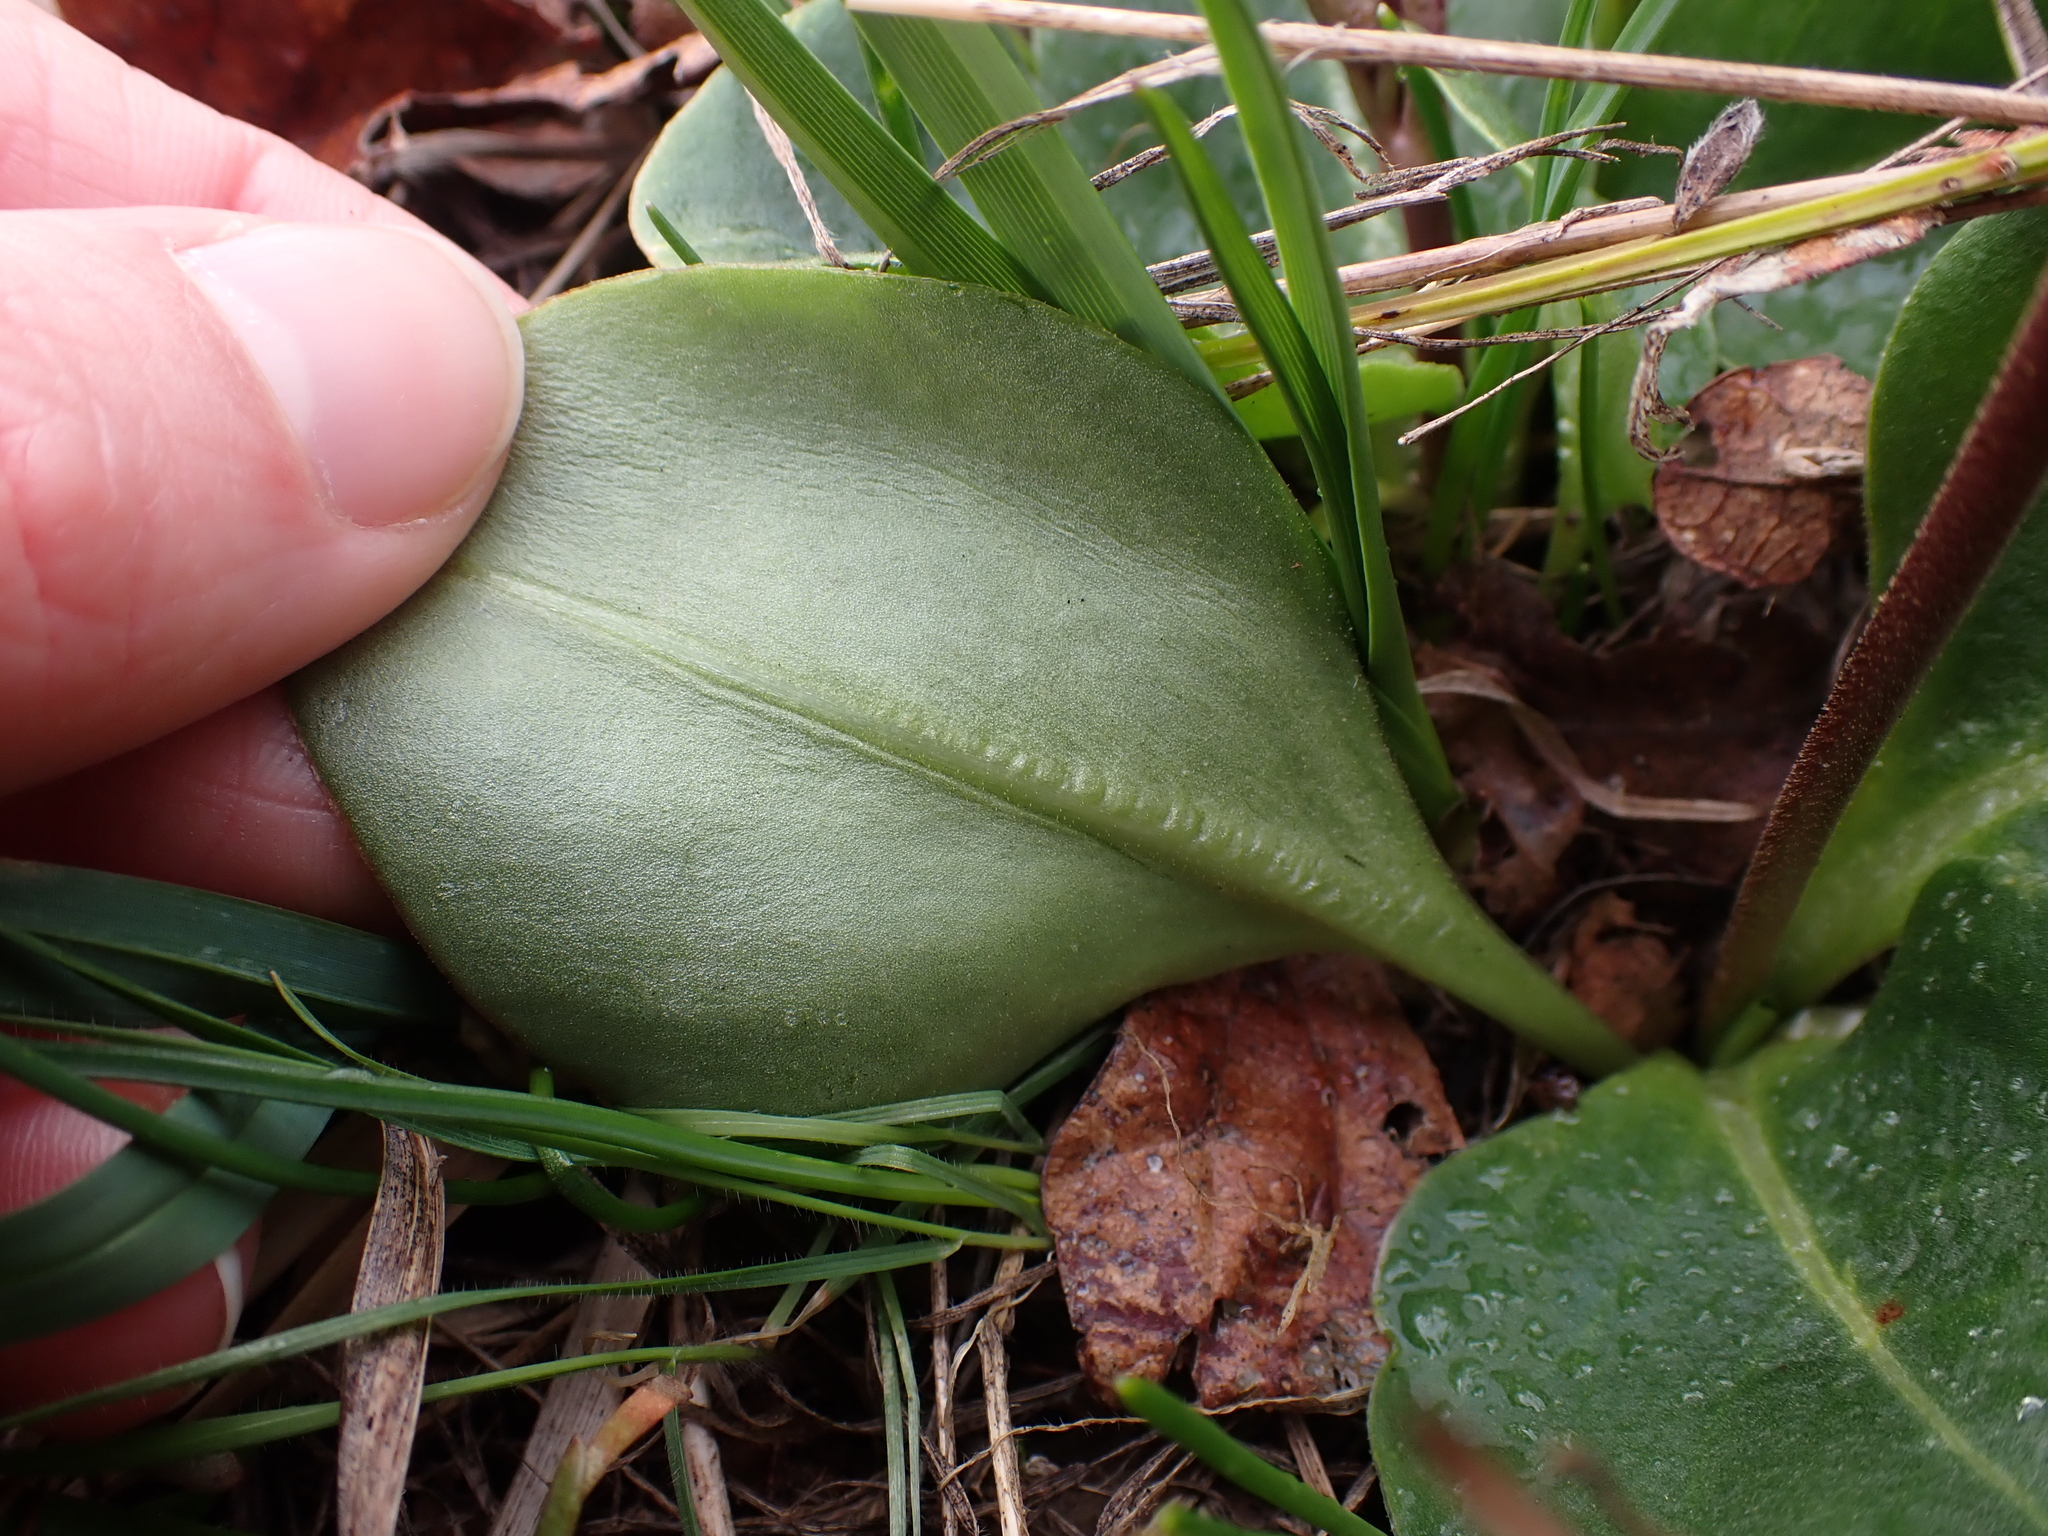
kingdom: Plantae
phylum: Tracheophyta
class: Magnoliopsida
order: Ericales
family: Primulaceae
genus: Dodecatheon
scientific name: Dodecatheon hendersonii
